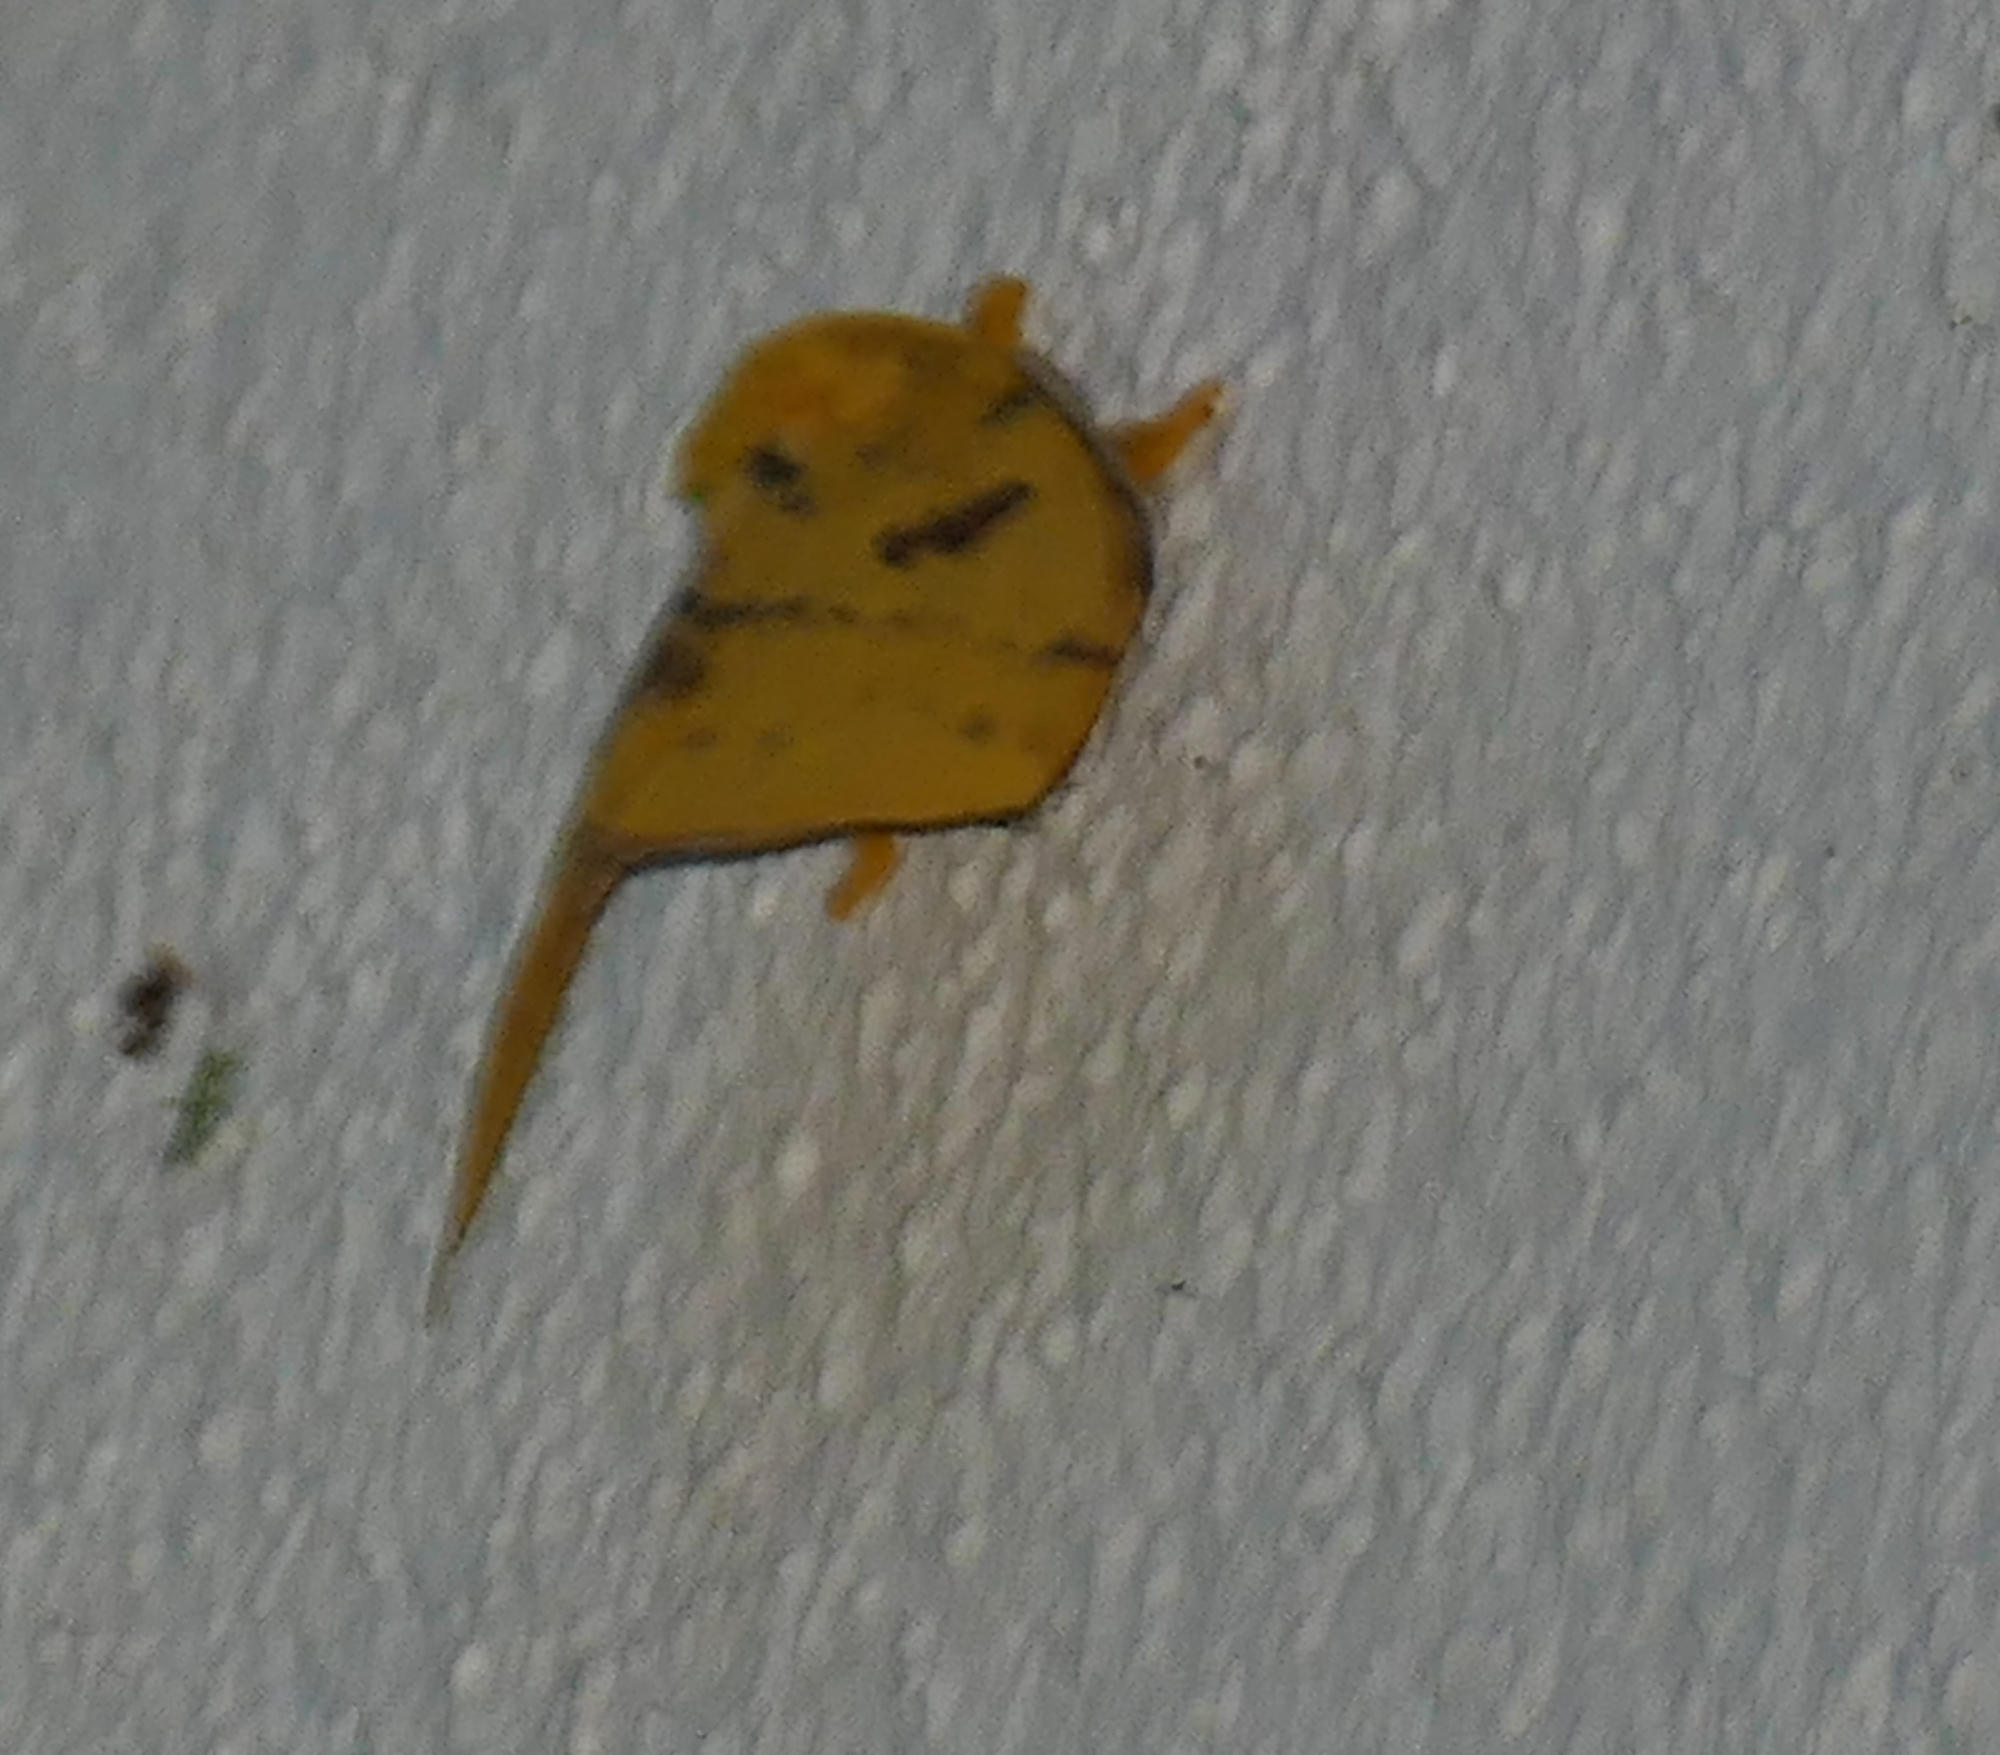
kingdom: Animalia
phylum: Arthropoda
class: Insecta
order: Lepidoptera
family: Saturniidae
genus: Automeris
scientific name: Automeris io
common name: Io moth
